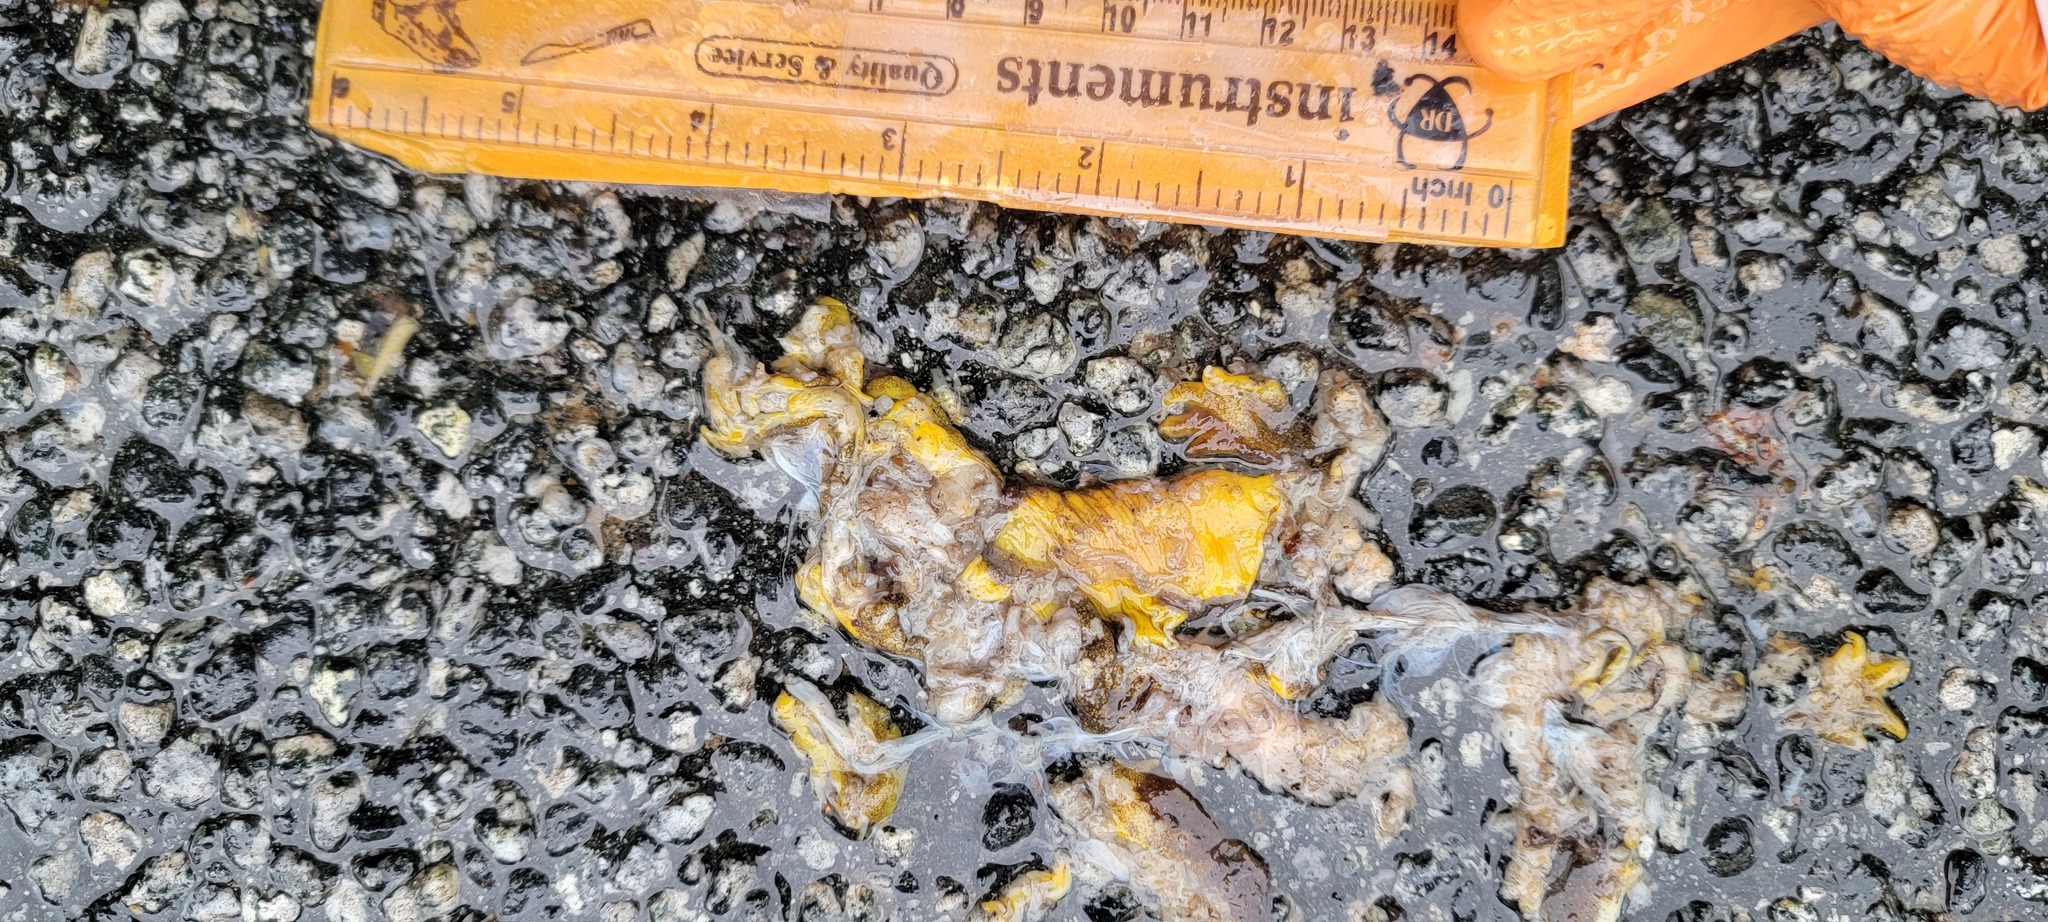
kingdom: Animalia
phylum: Chordata
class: Amphibia
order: Caudata
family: Salamandridae
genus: Taricha
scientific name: Taricha
